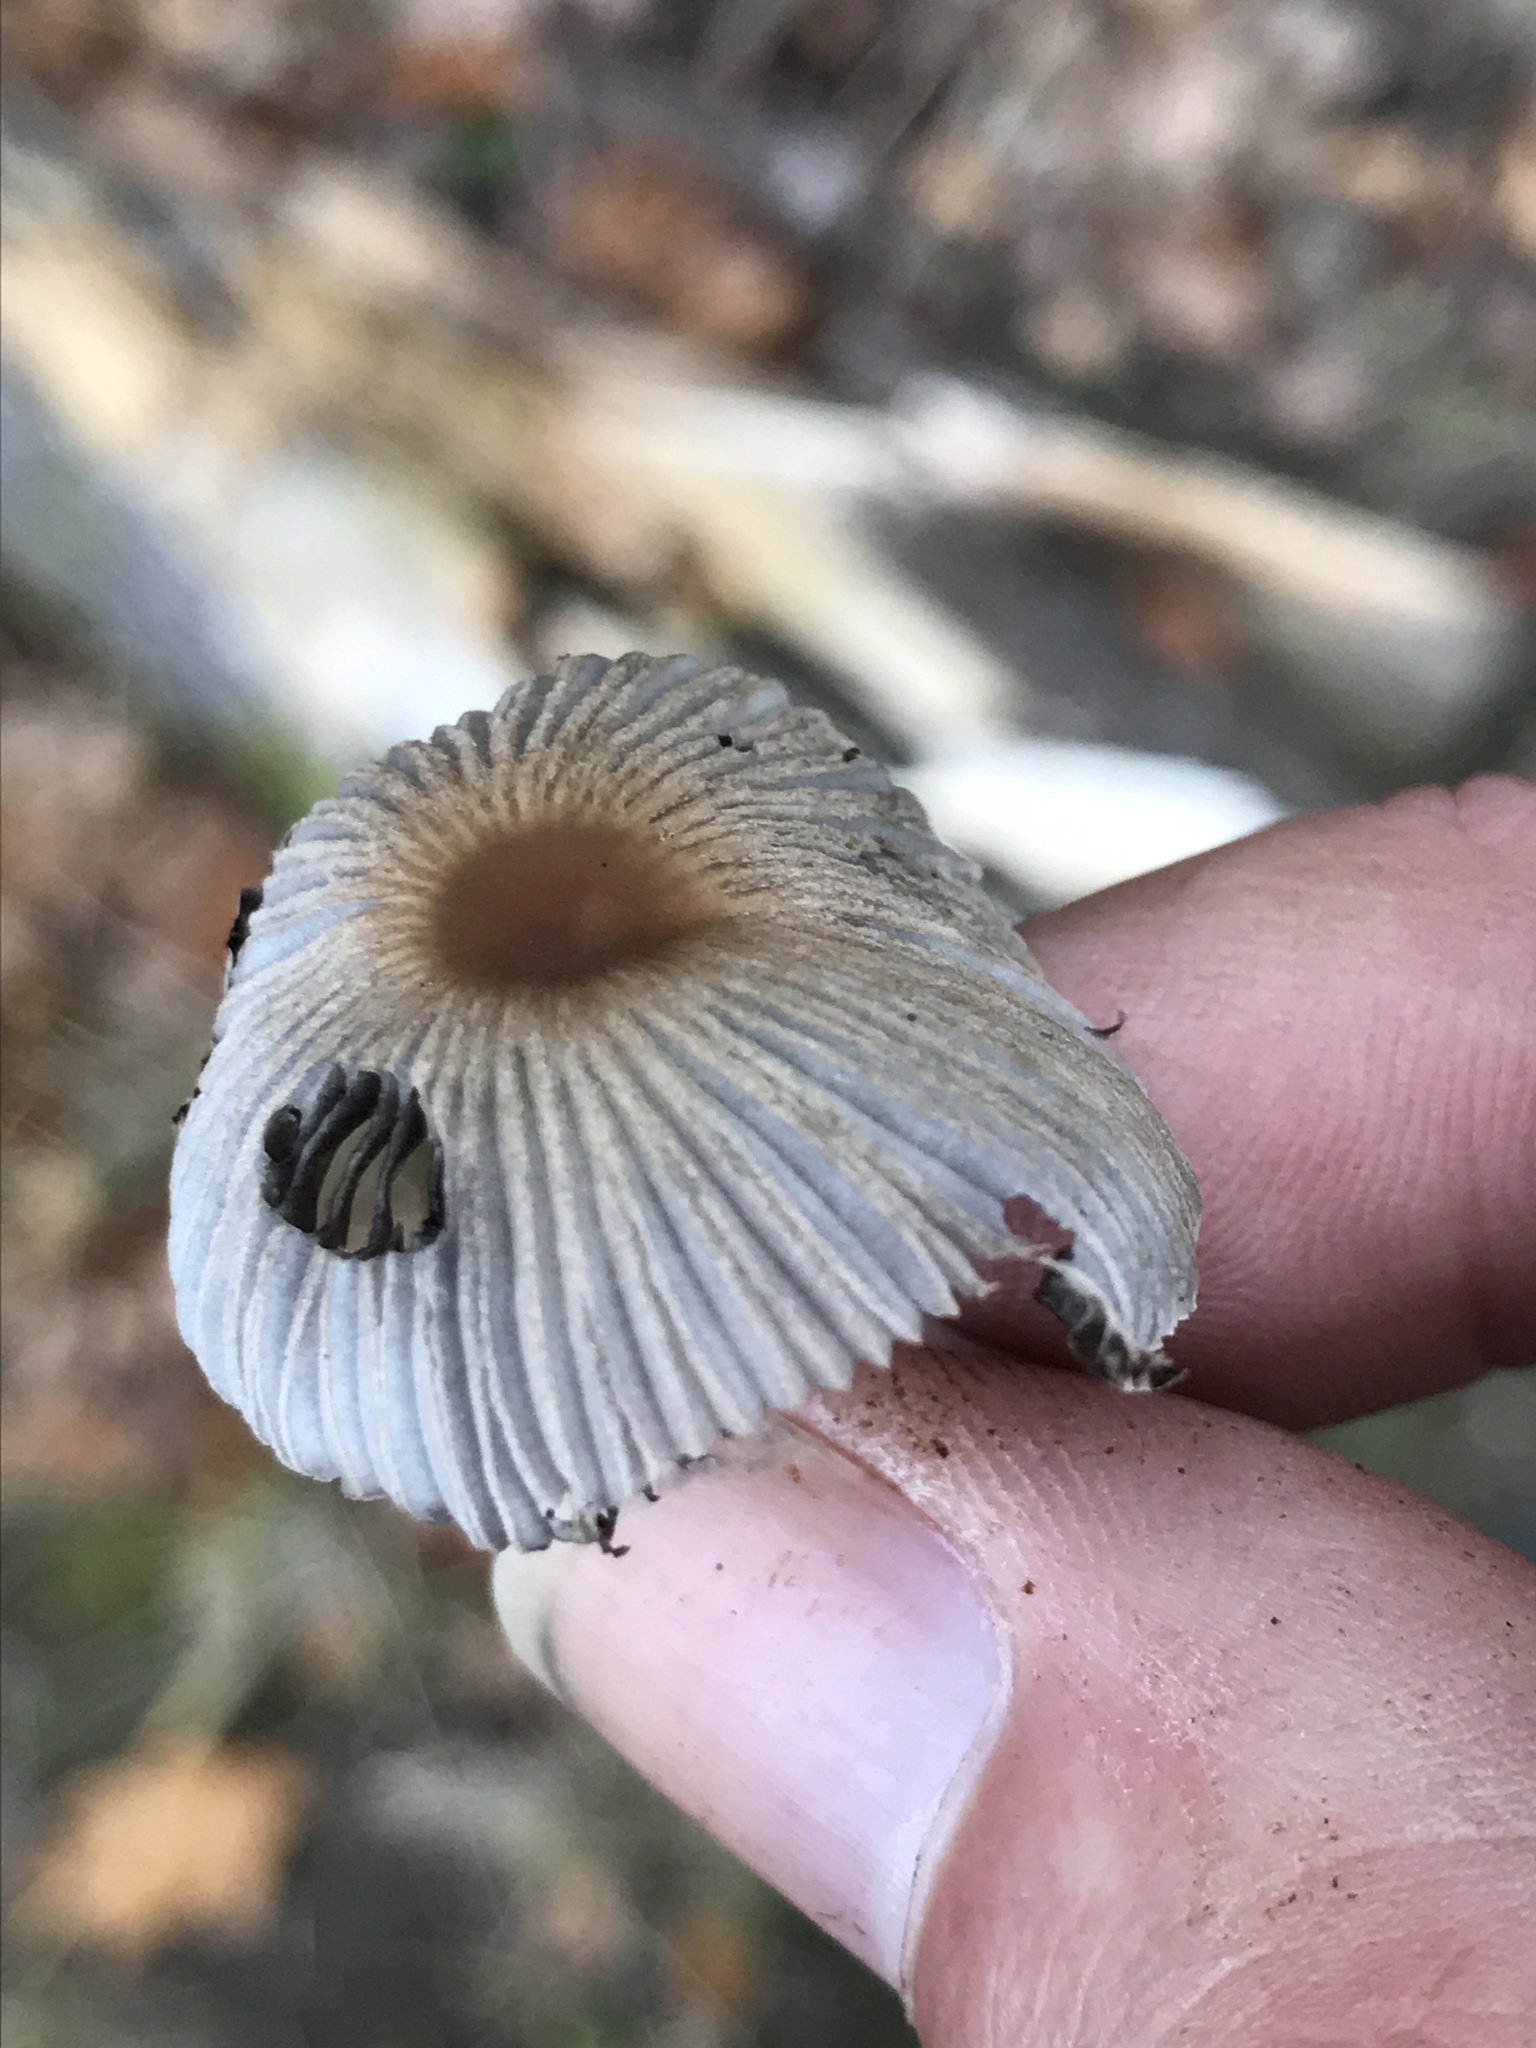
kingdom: Fungi
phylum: Basidiomycota
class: Agaricomycetes
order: Agaricales
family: Psathyrellaceae
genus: Parasola
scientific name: Parasola plicatilis
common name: Pleated inkcap
